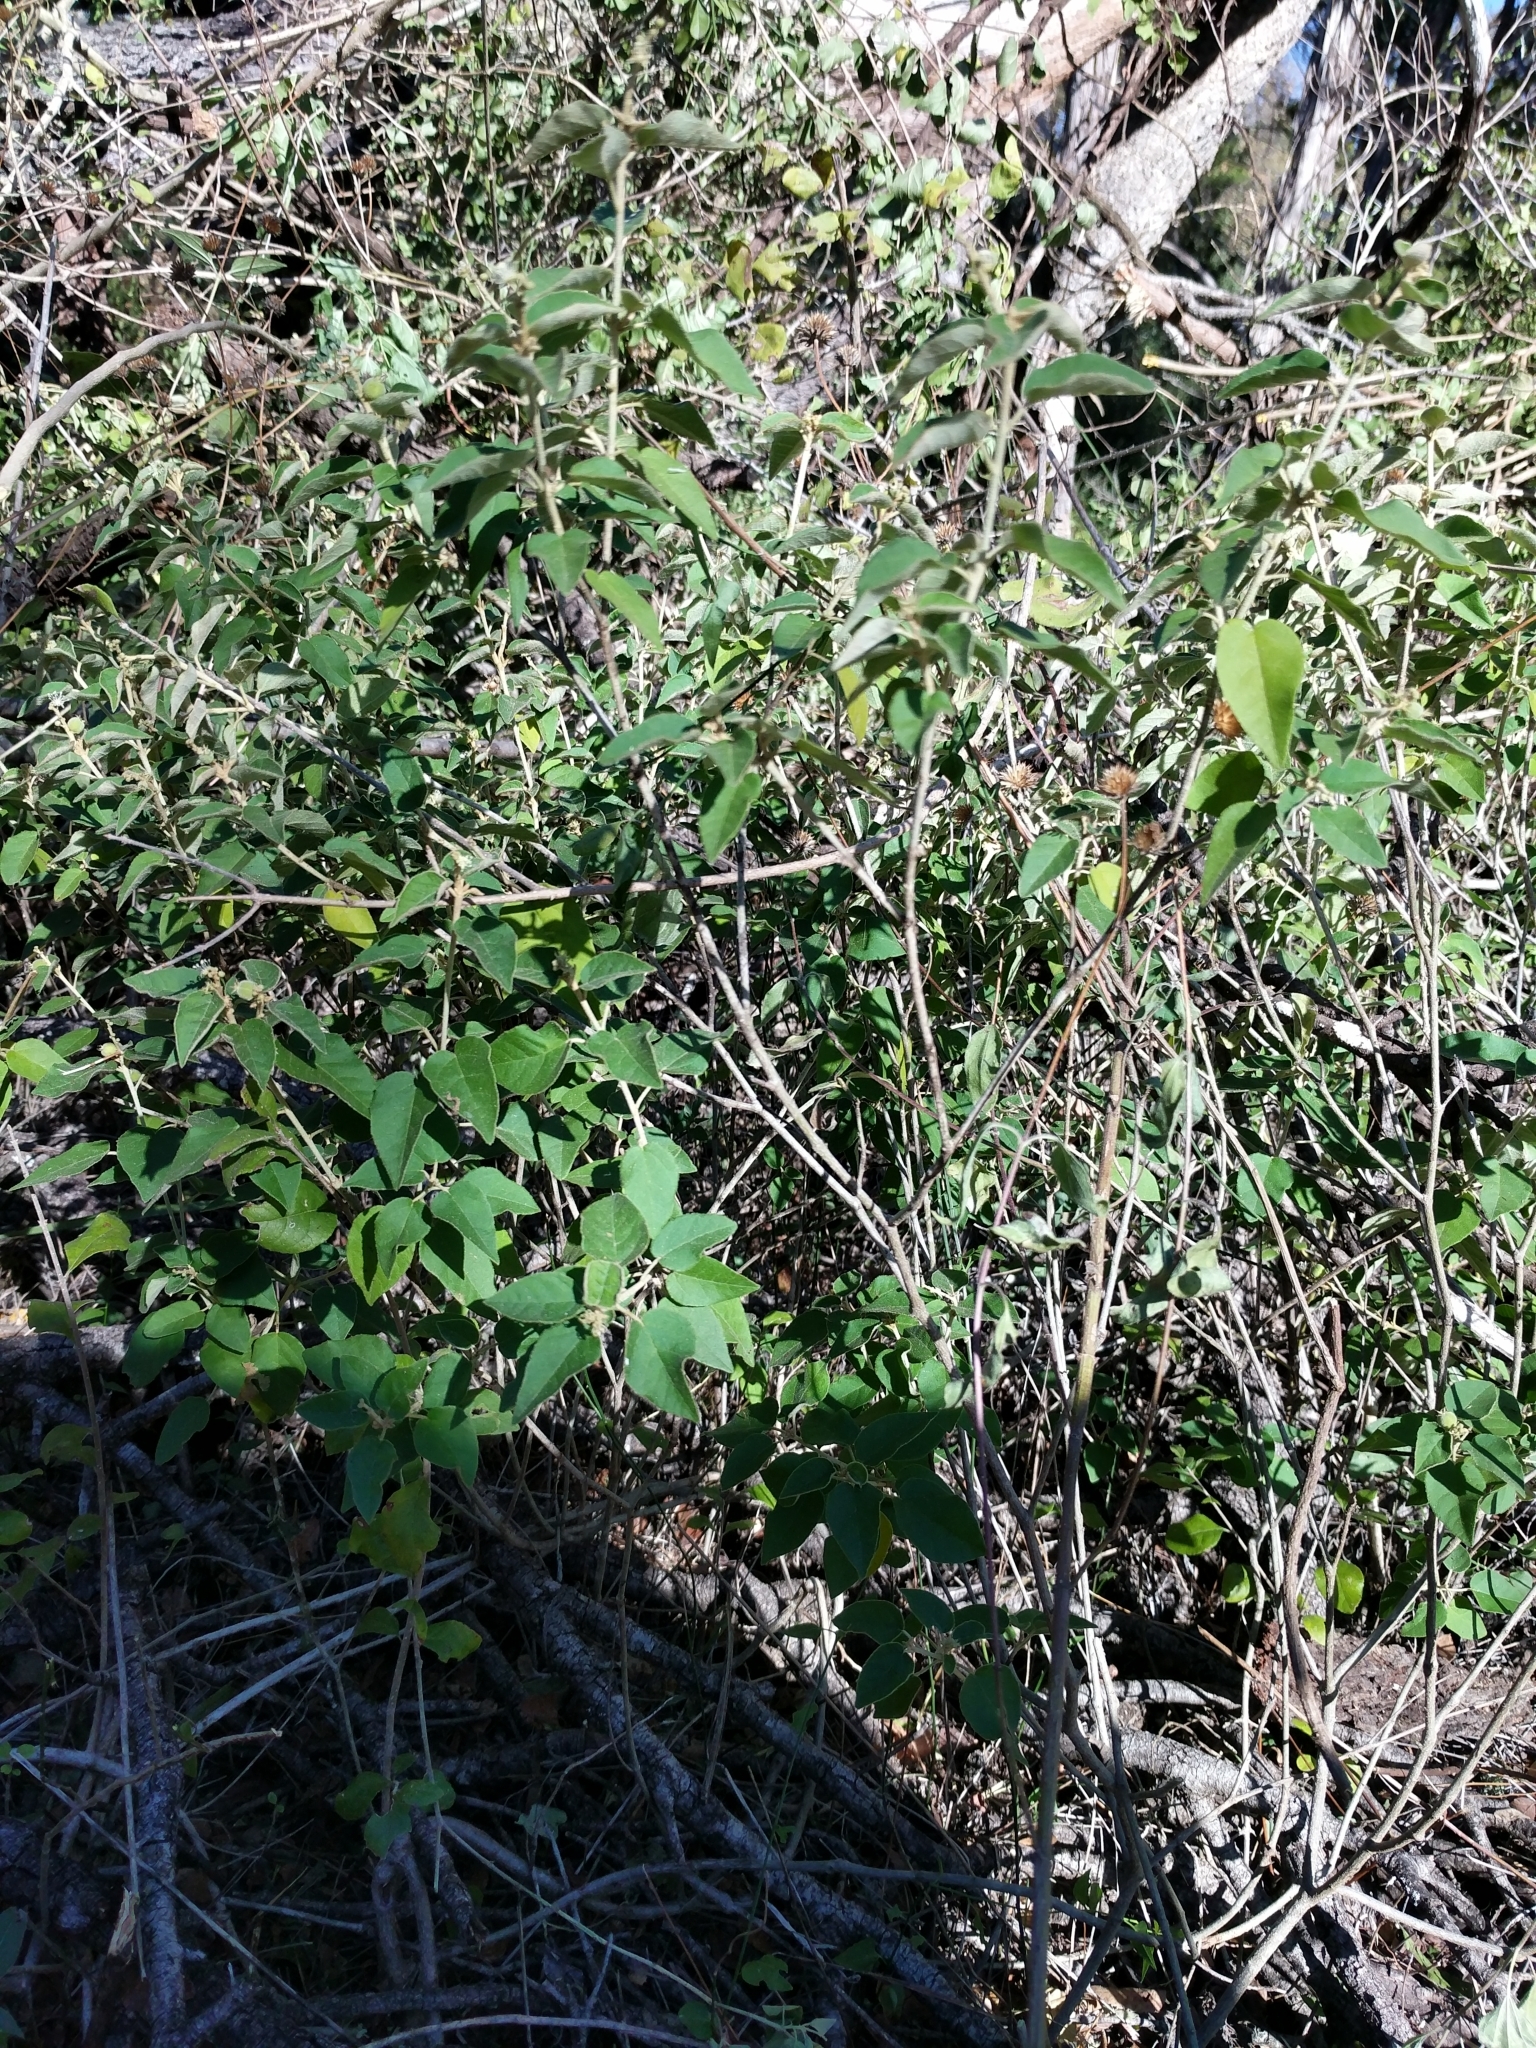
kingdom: Plantae
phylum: Tracheophyta
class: Magnoliopsida
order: Malpighiales
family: Euphorbiaceae
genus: Croton
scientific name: Croton fruticulosus
